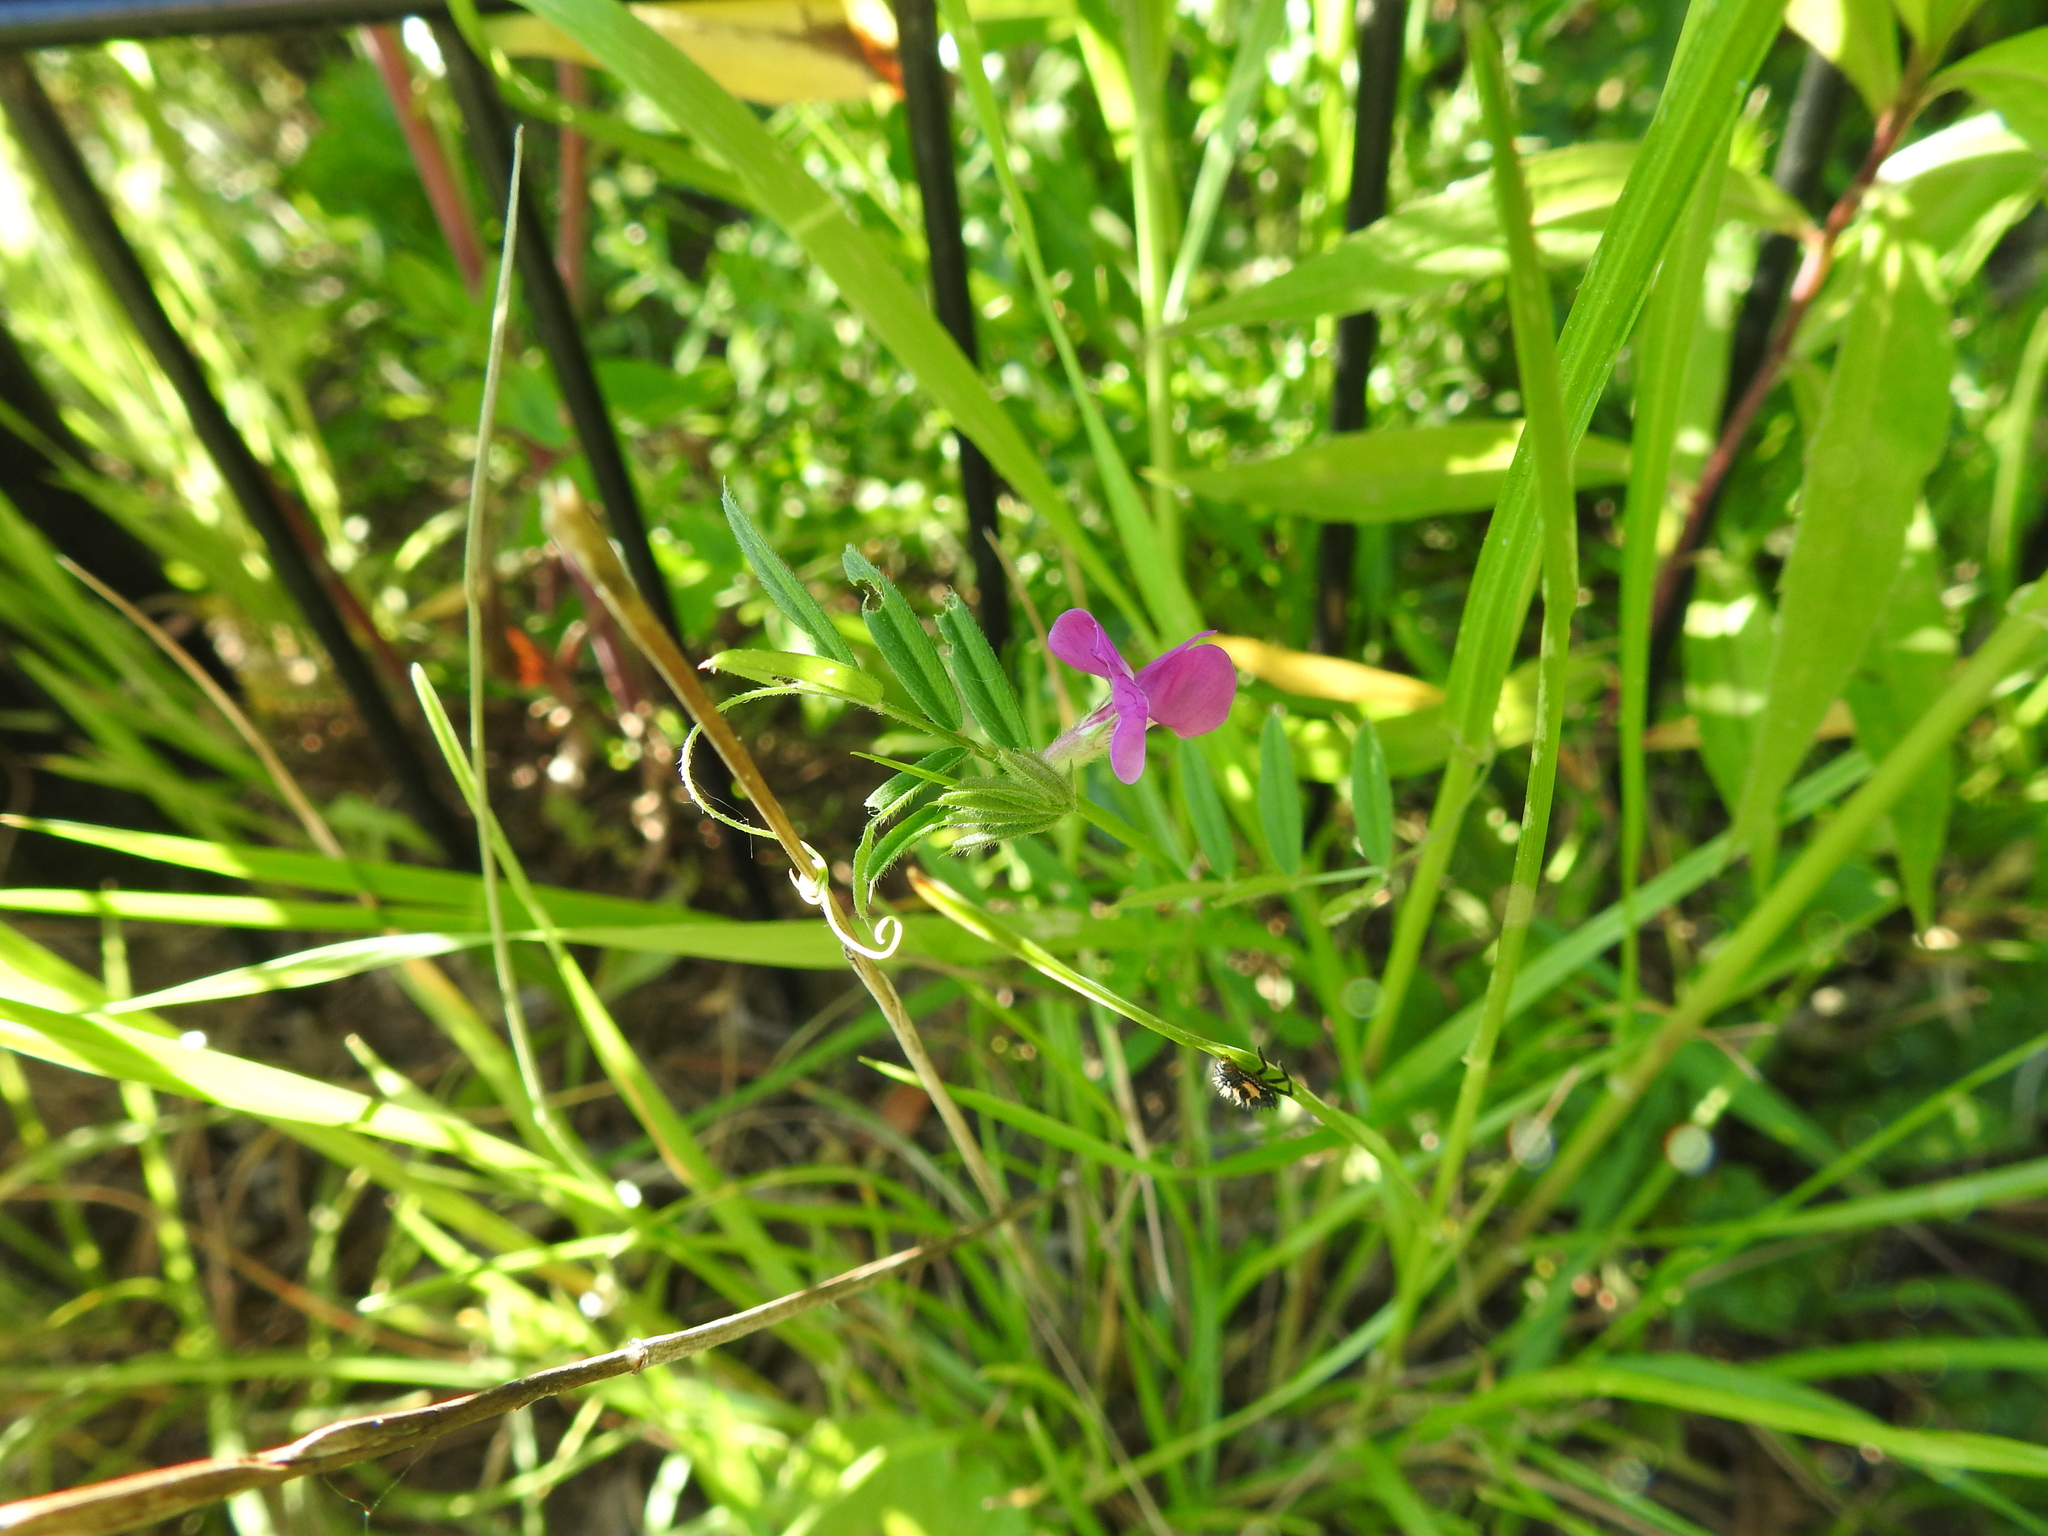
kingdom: Plantae
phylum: Tracheophyta
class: Magnoliopsida
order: Fabales
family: Fabaceae
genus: Vicia
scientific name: Vicia sativa
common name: Garden vetch
